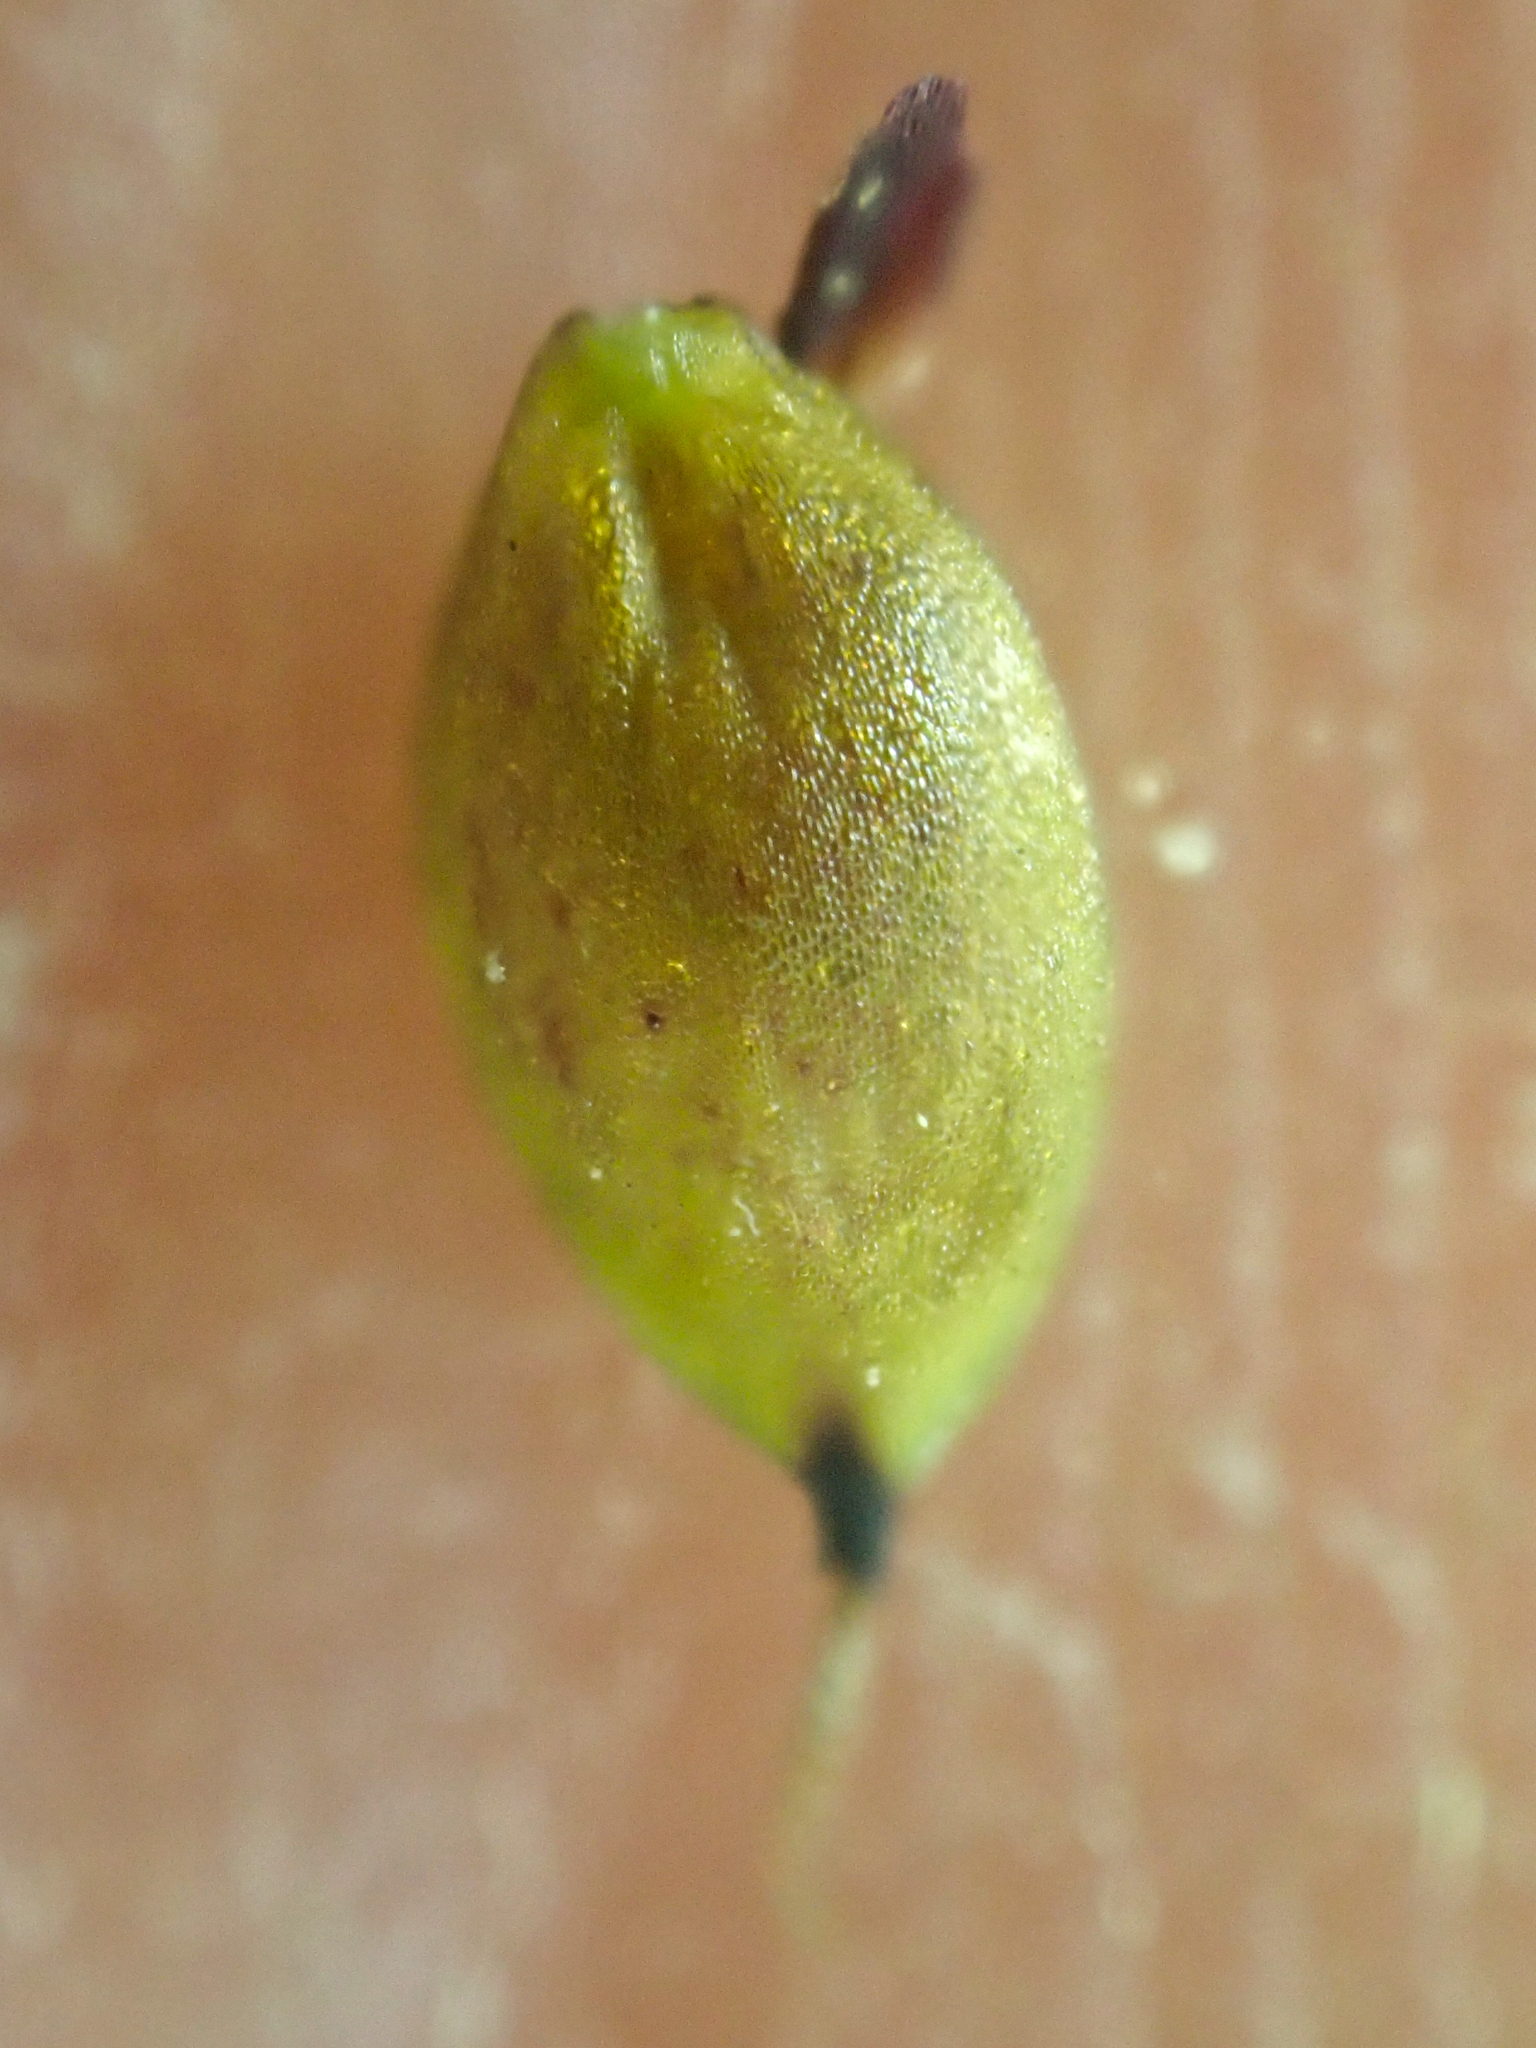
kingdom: Plantae
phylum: Tracheophyta
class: Liliopsida
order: Poales
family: Cyperaceae
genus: Carex
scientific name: Carex atrosquama
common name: Black-scale sedge
